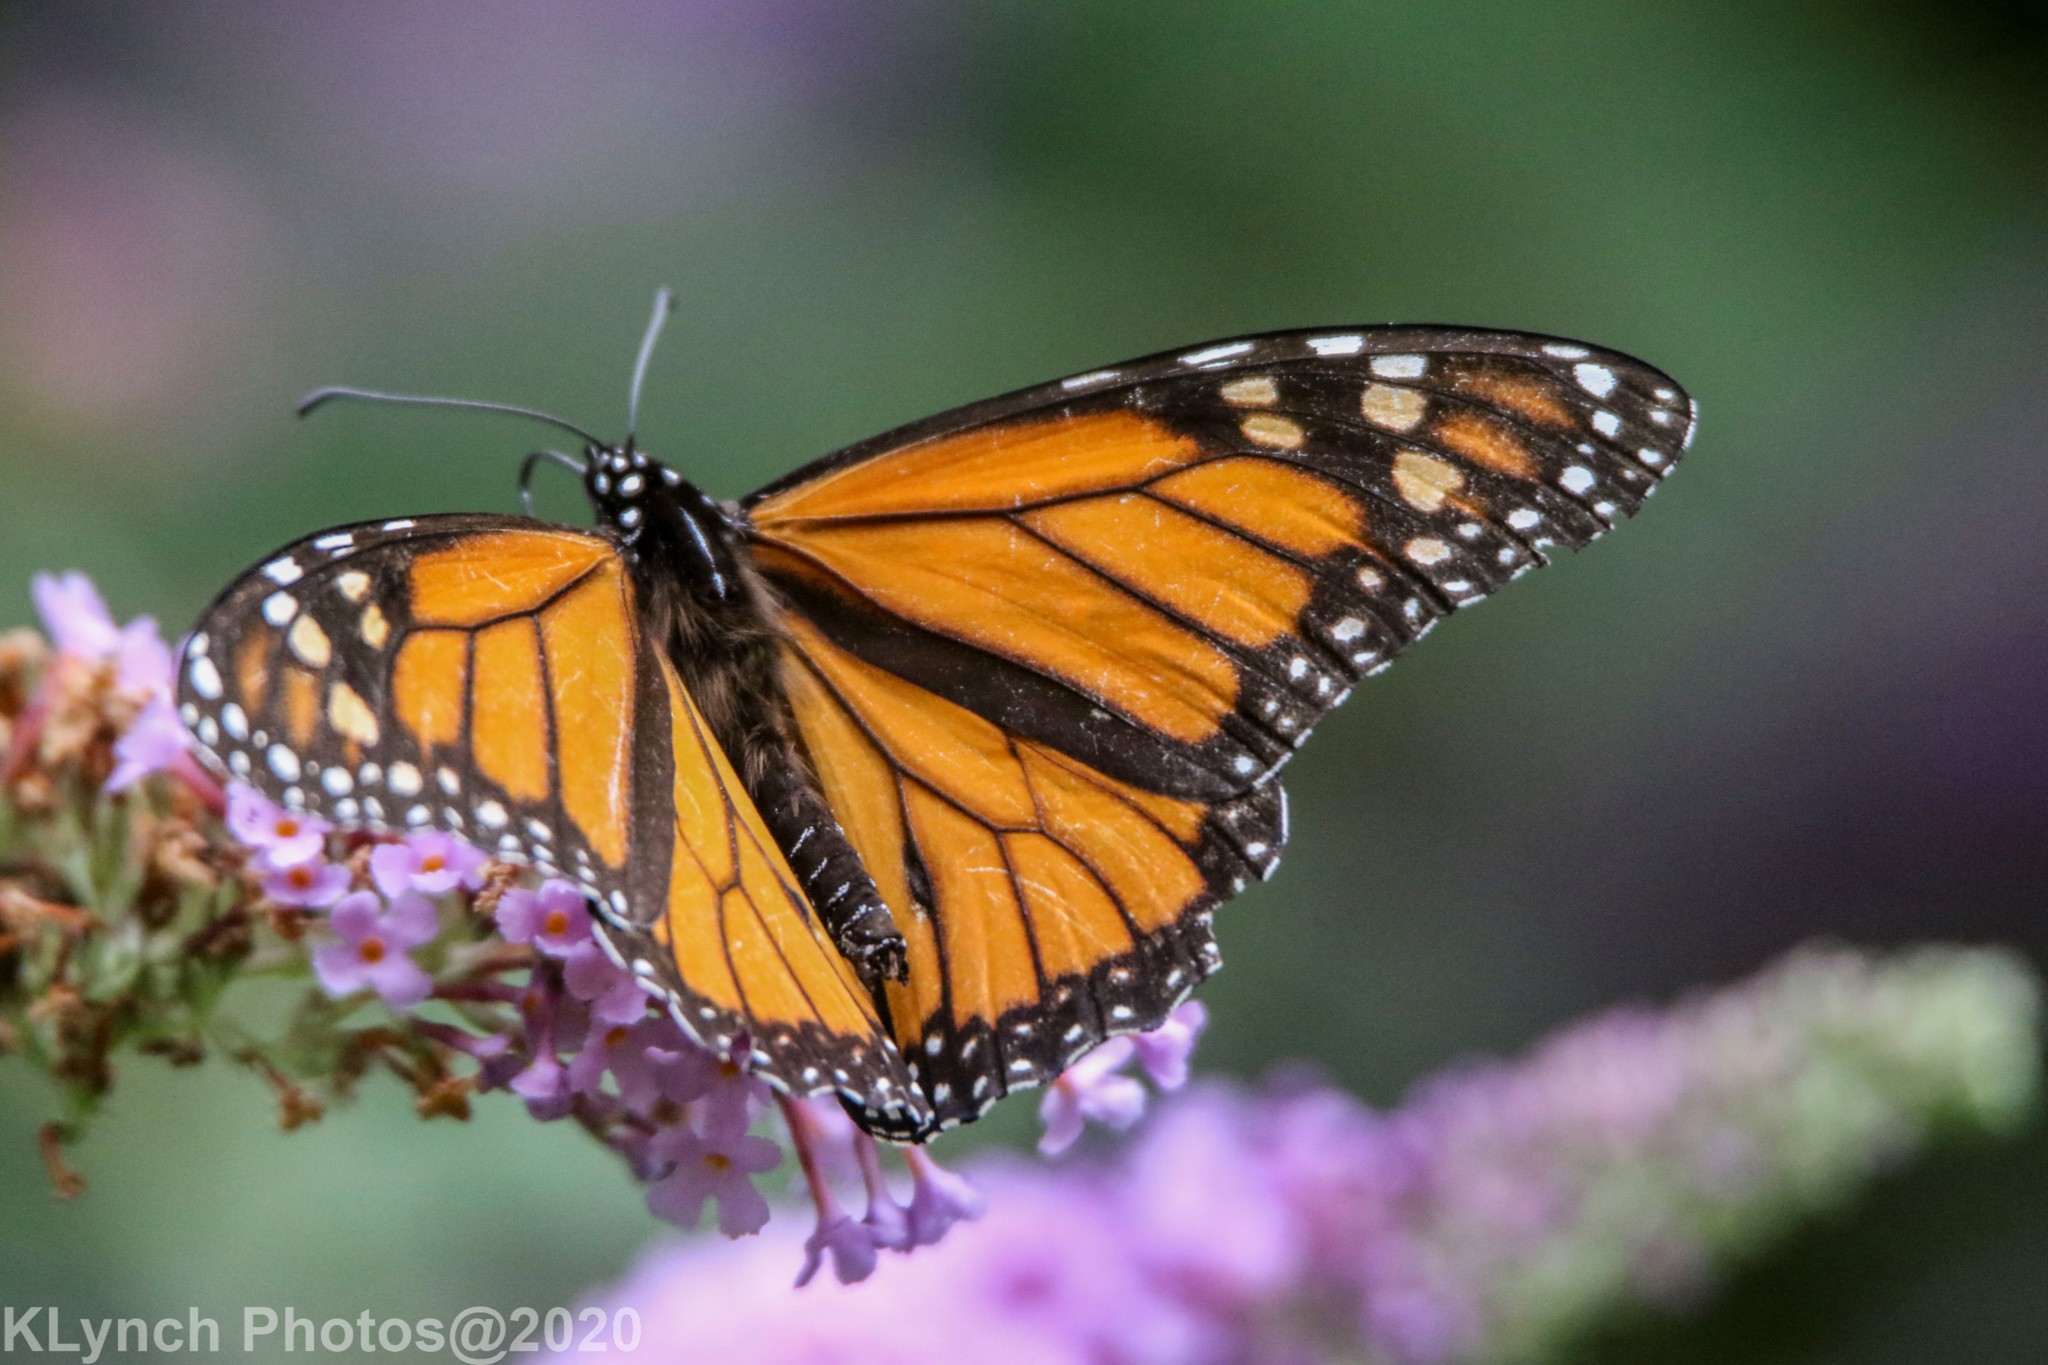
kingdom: Animalia
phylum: Arthropoda
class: Insecta
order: Lepidoptera
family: Nymphalidae
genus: Danaus
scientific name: Danaus plexippus
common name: Monarch
